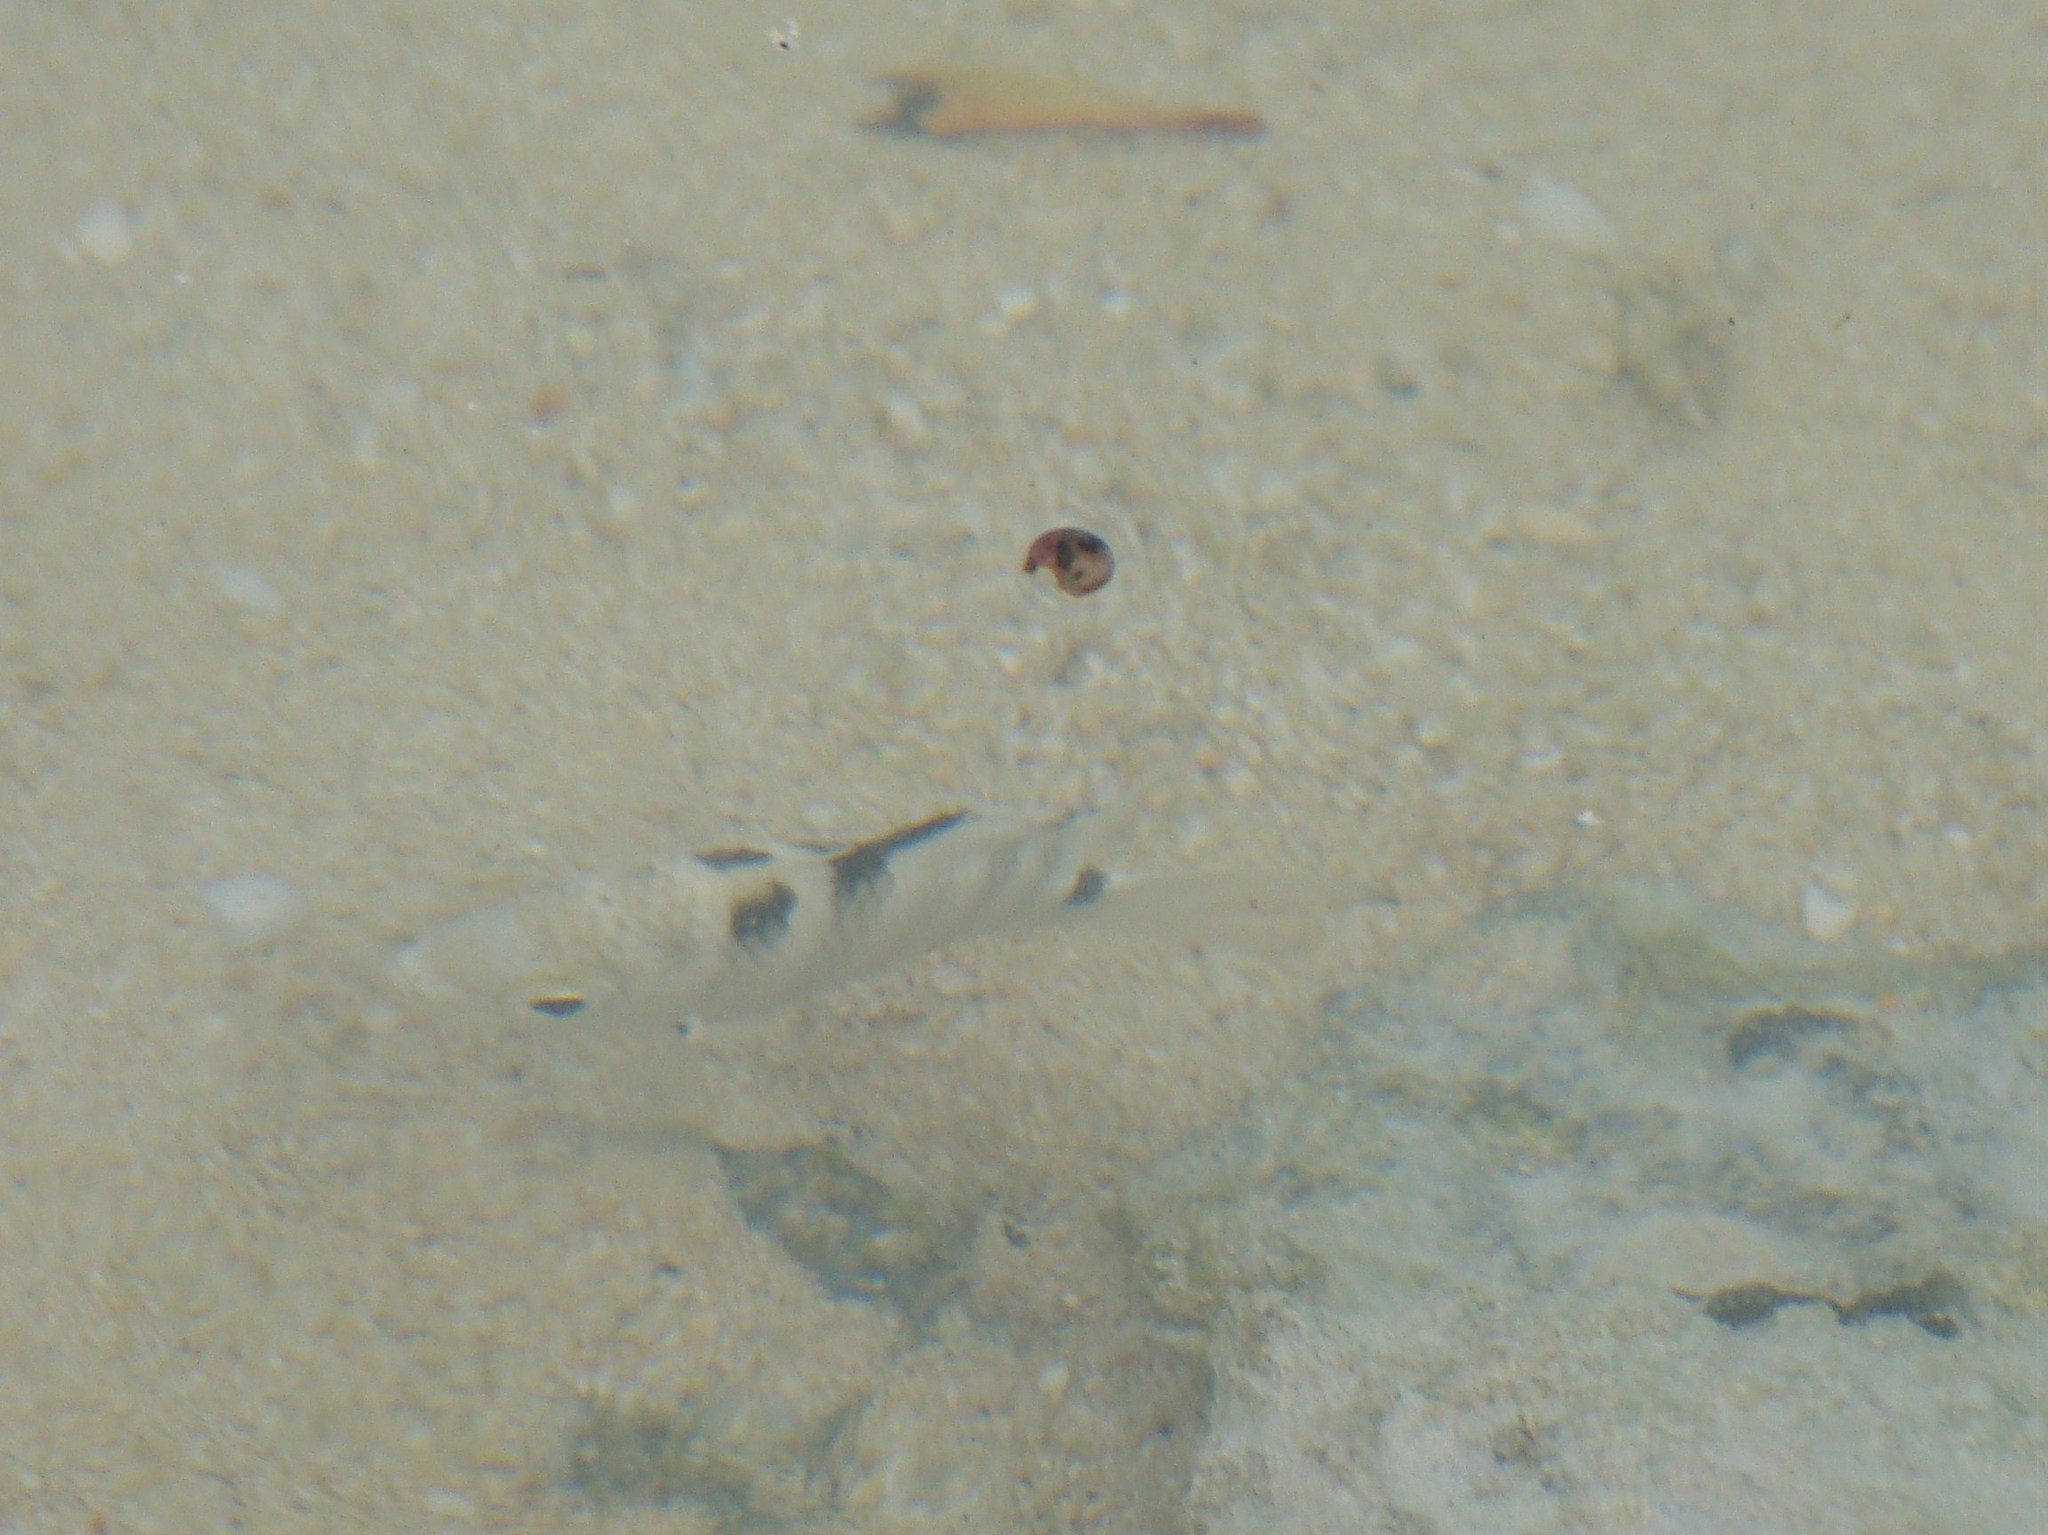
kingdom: Animalia
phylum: Chordata
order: Perciformes
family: Pomacentridae
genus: Abudefduf
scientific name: Abudefduf septemfasciatus
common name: Banded sergeant
